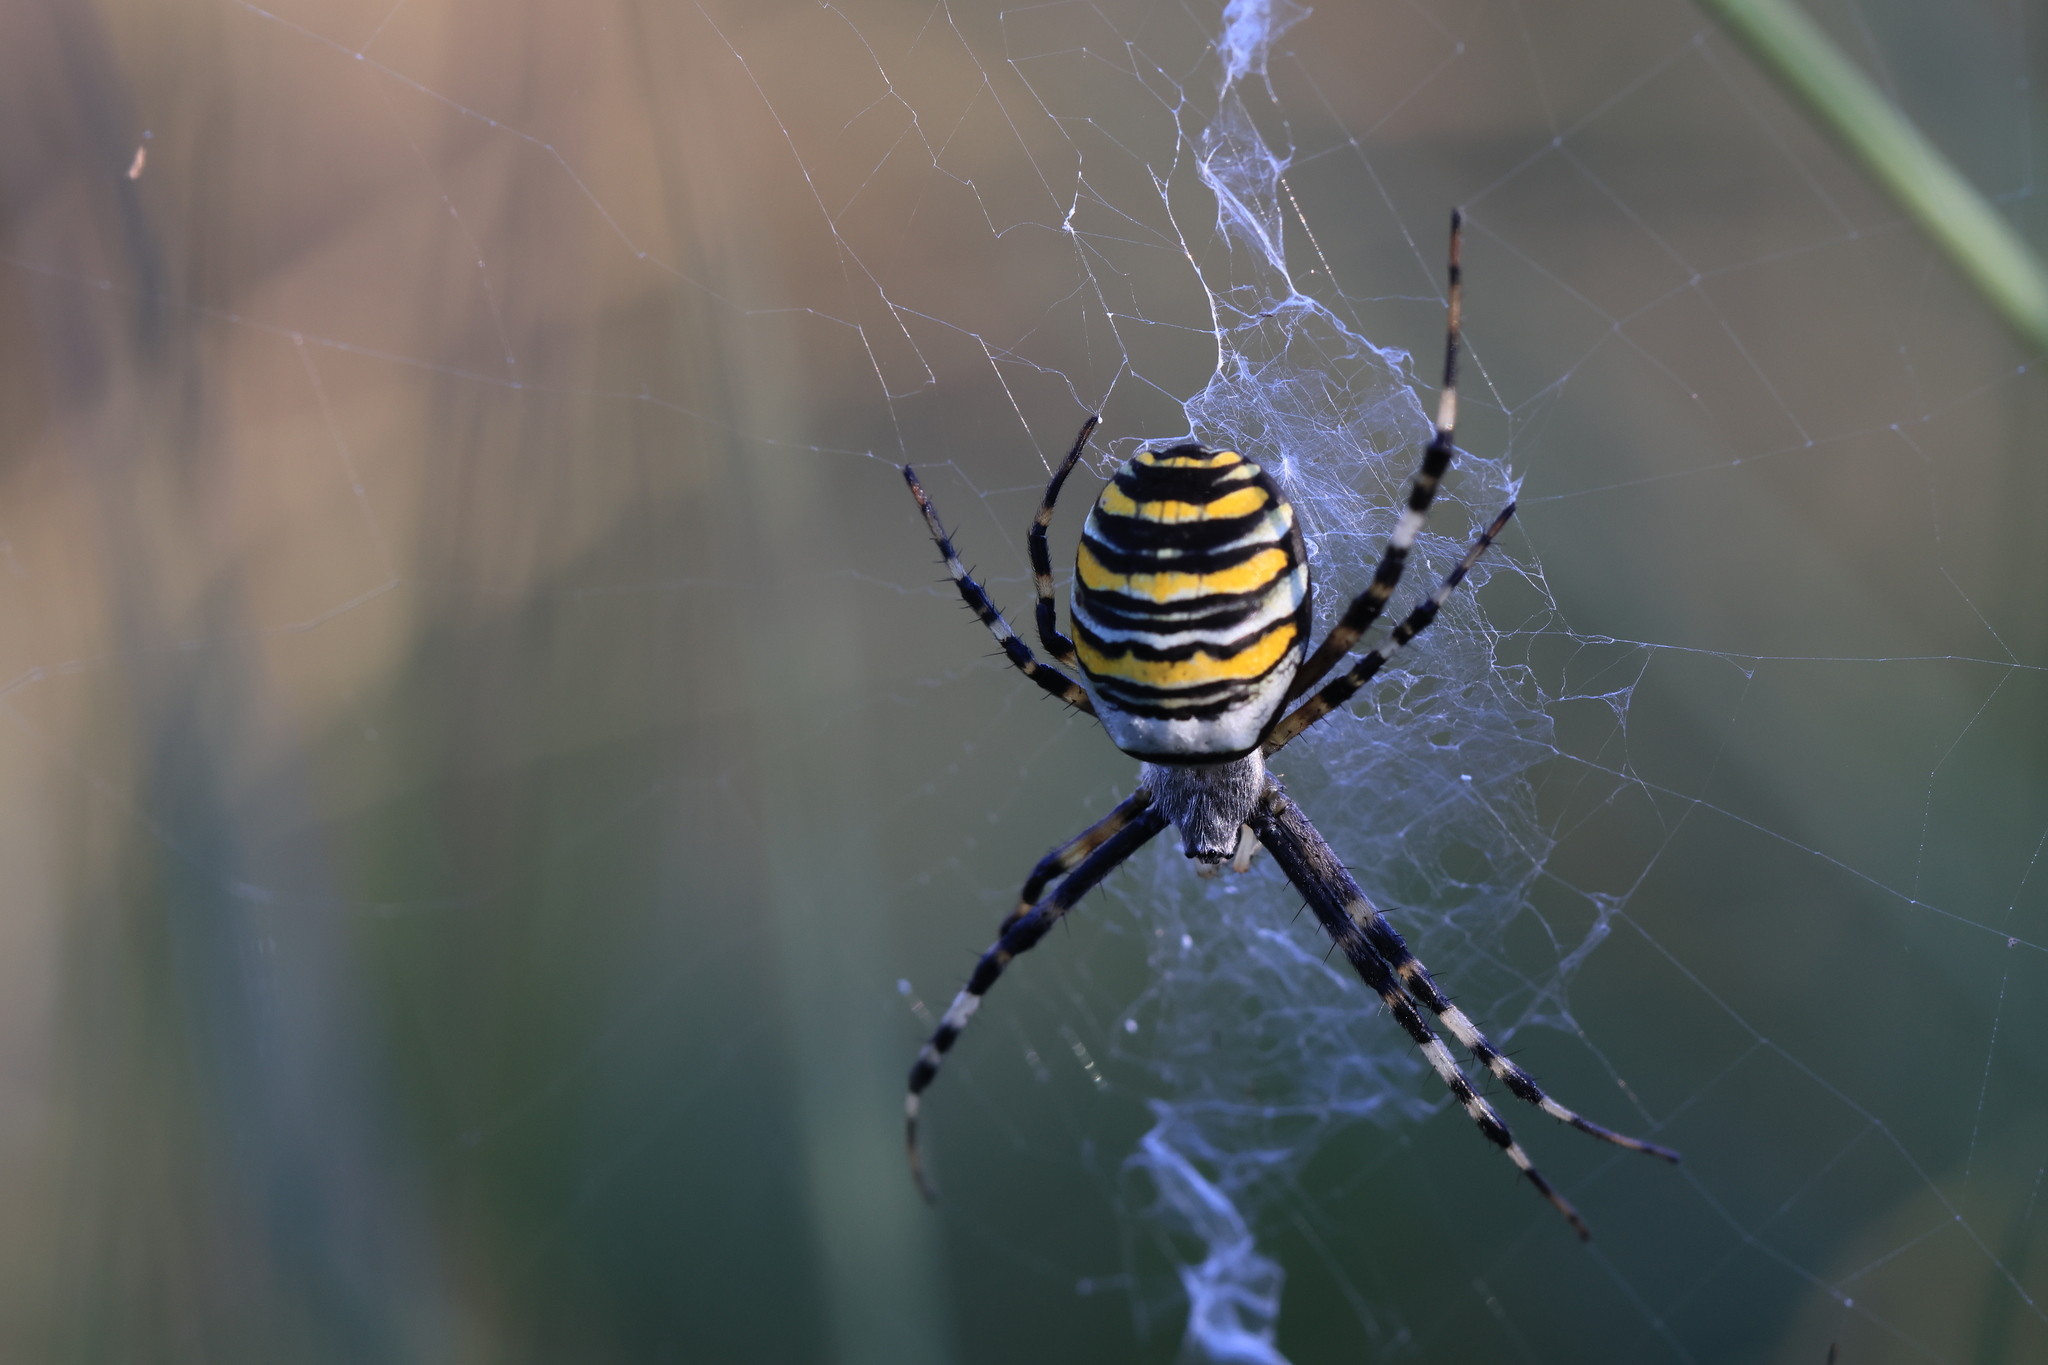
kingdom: Animalia
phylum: Arthropoda
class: Arachnida
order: Araneae
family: Araneidae
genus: Argiope
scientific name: Argiope bruennichi
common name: Wasp spider
